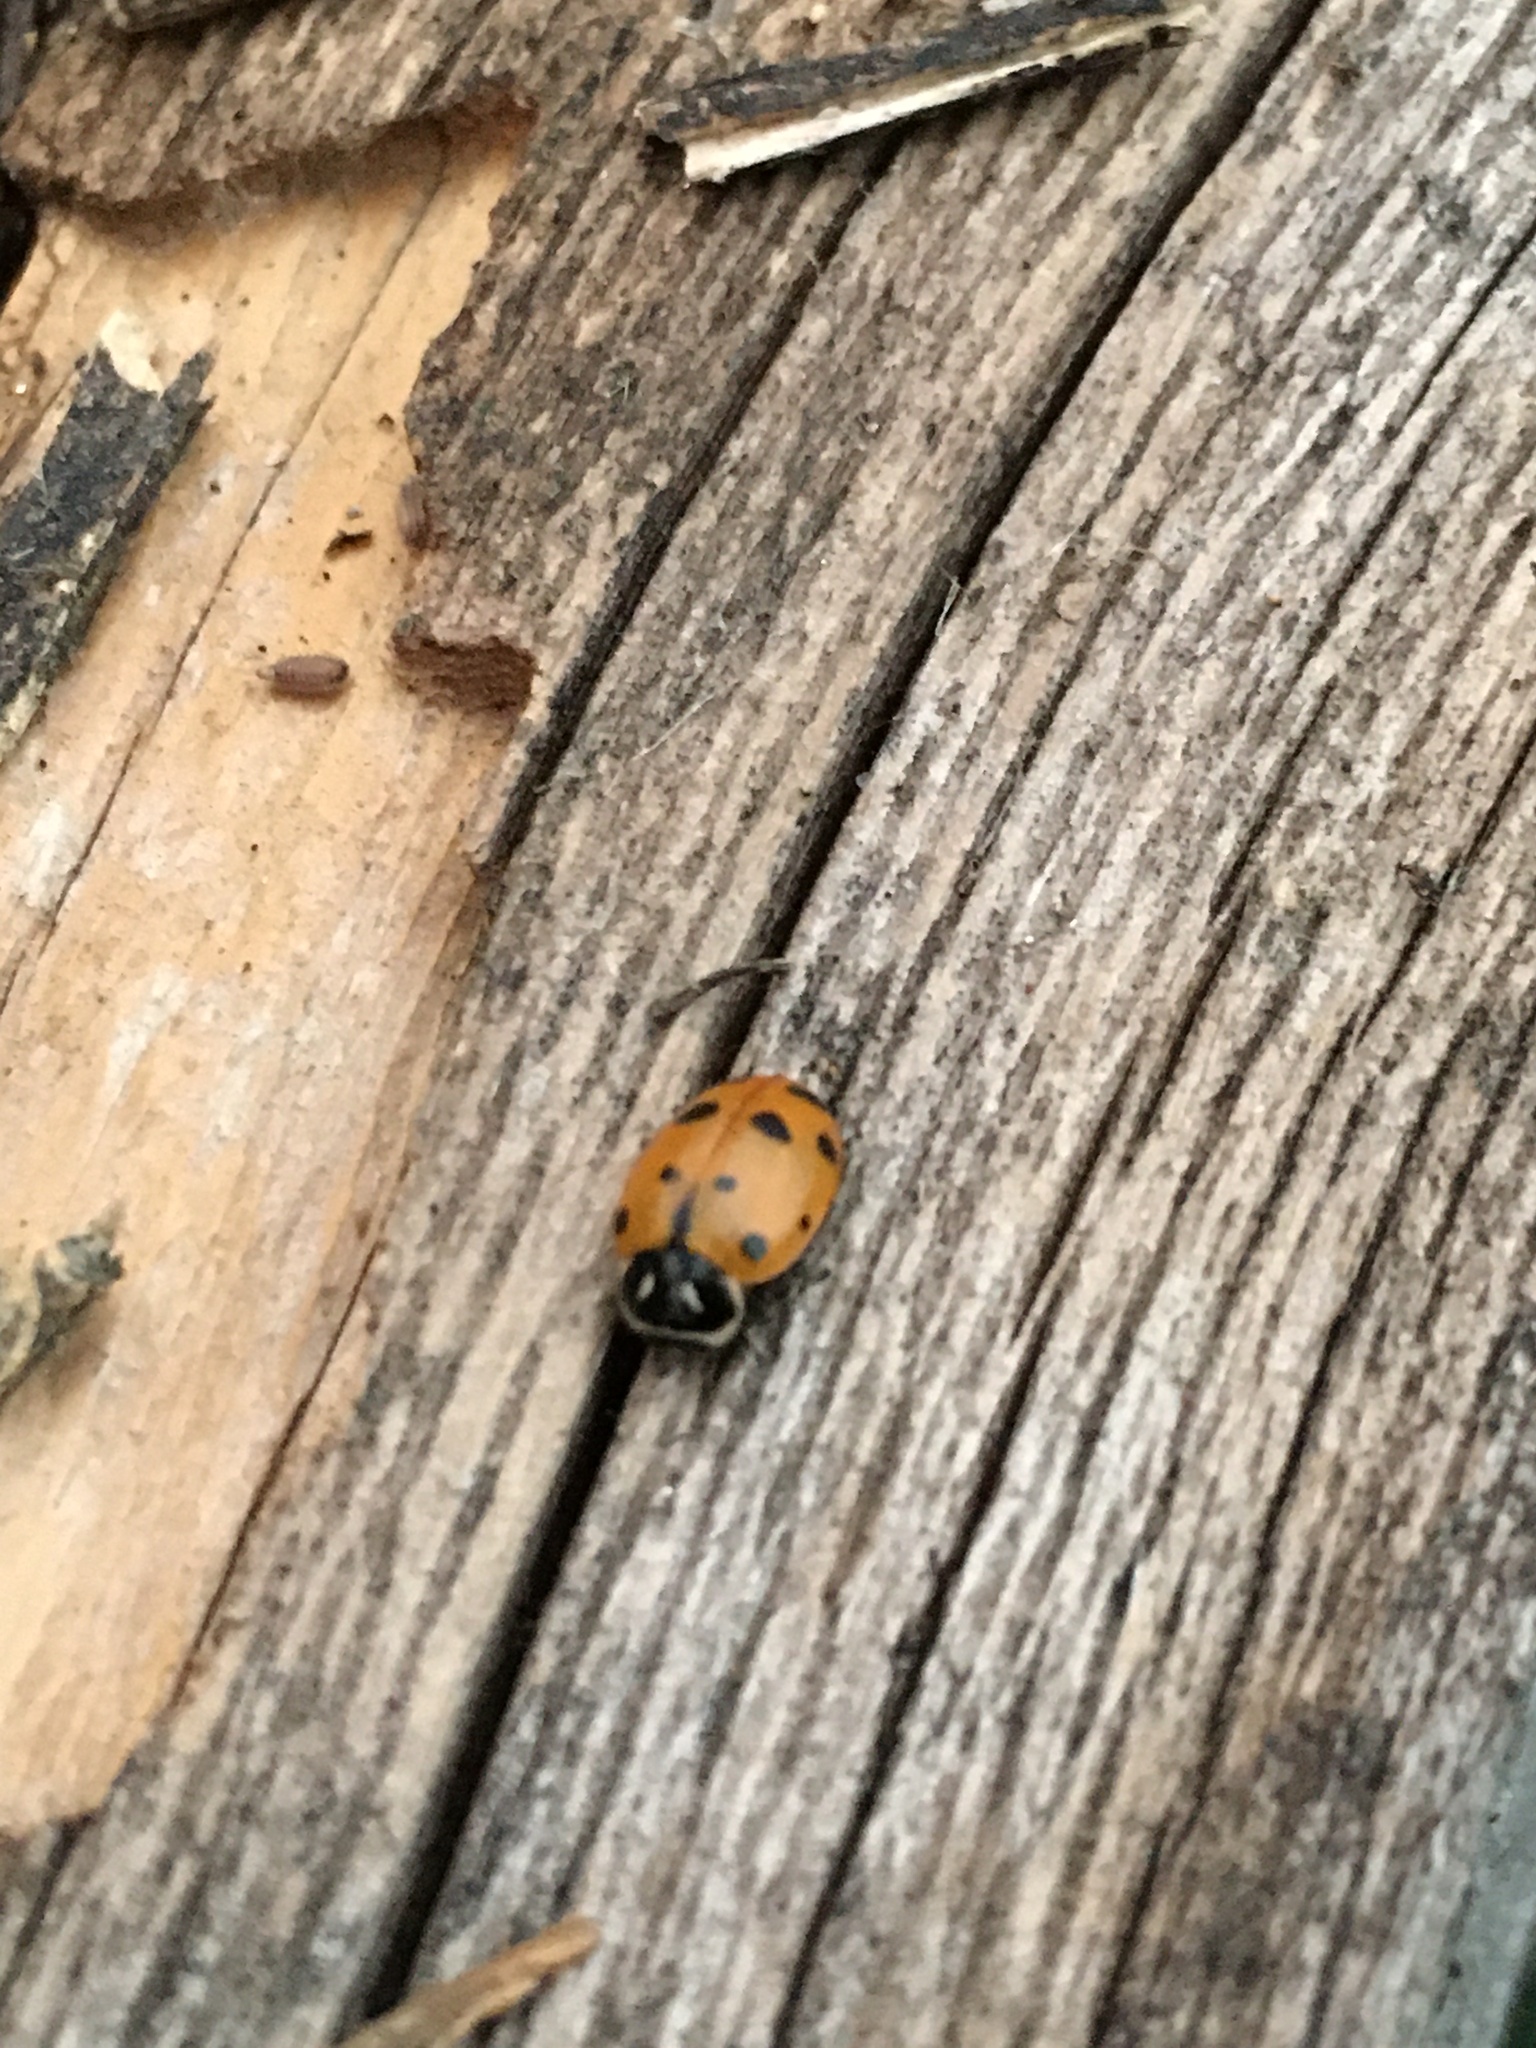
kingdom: Animalia
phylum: Arthropoda
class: Insecta
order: Coleoptera
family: Coccinellidae
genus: Hippodamia
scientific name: Hippodamia convergens
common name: Convergent lady beetle
